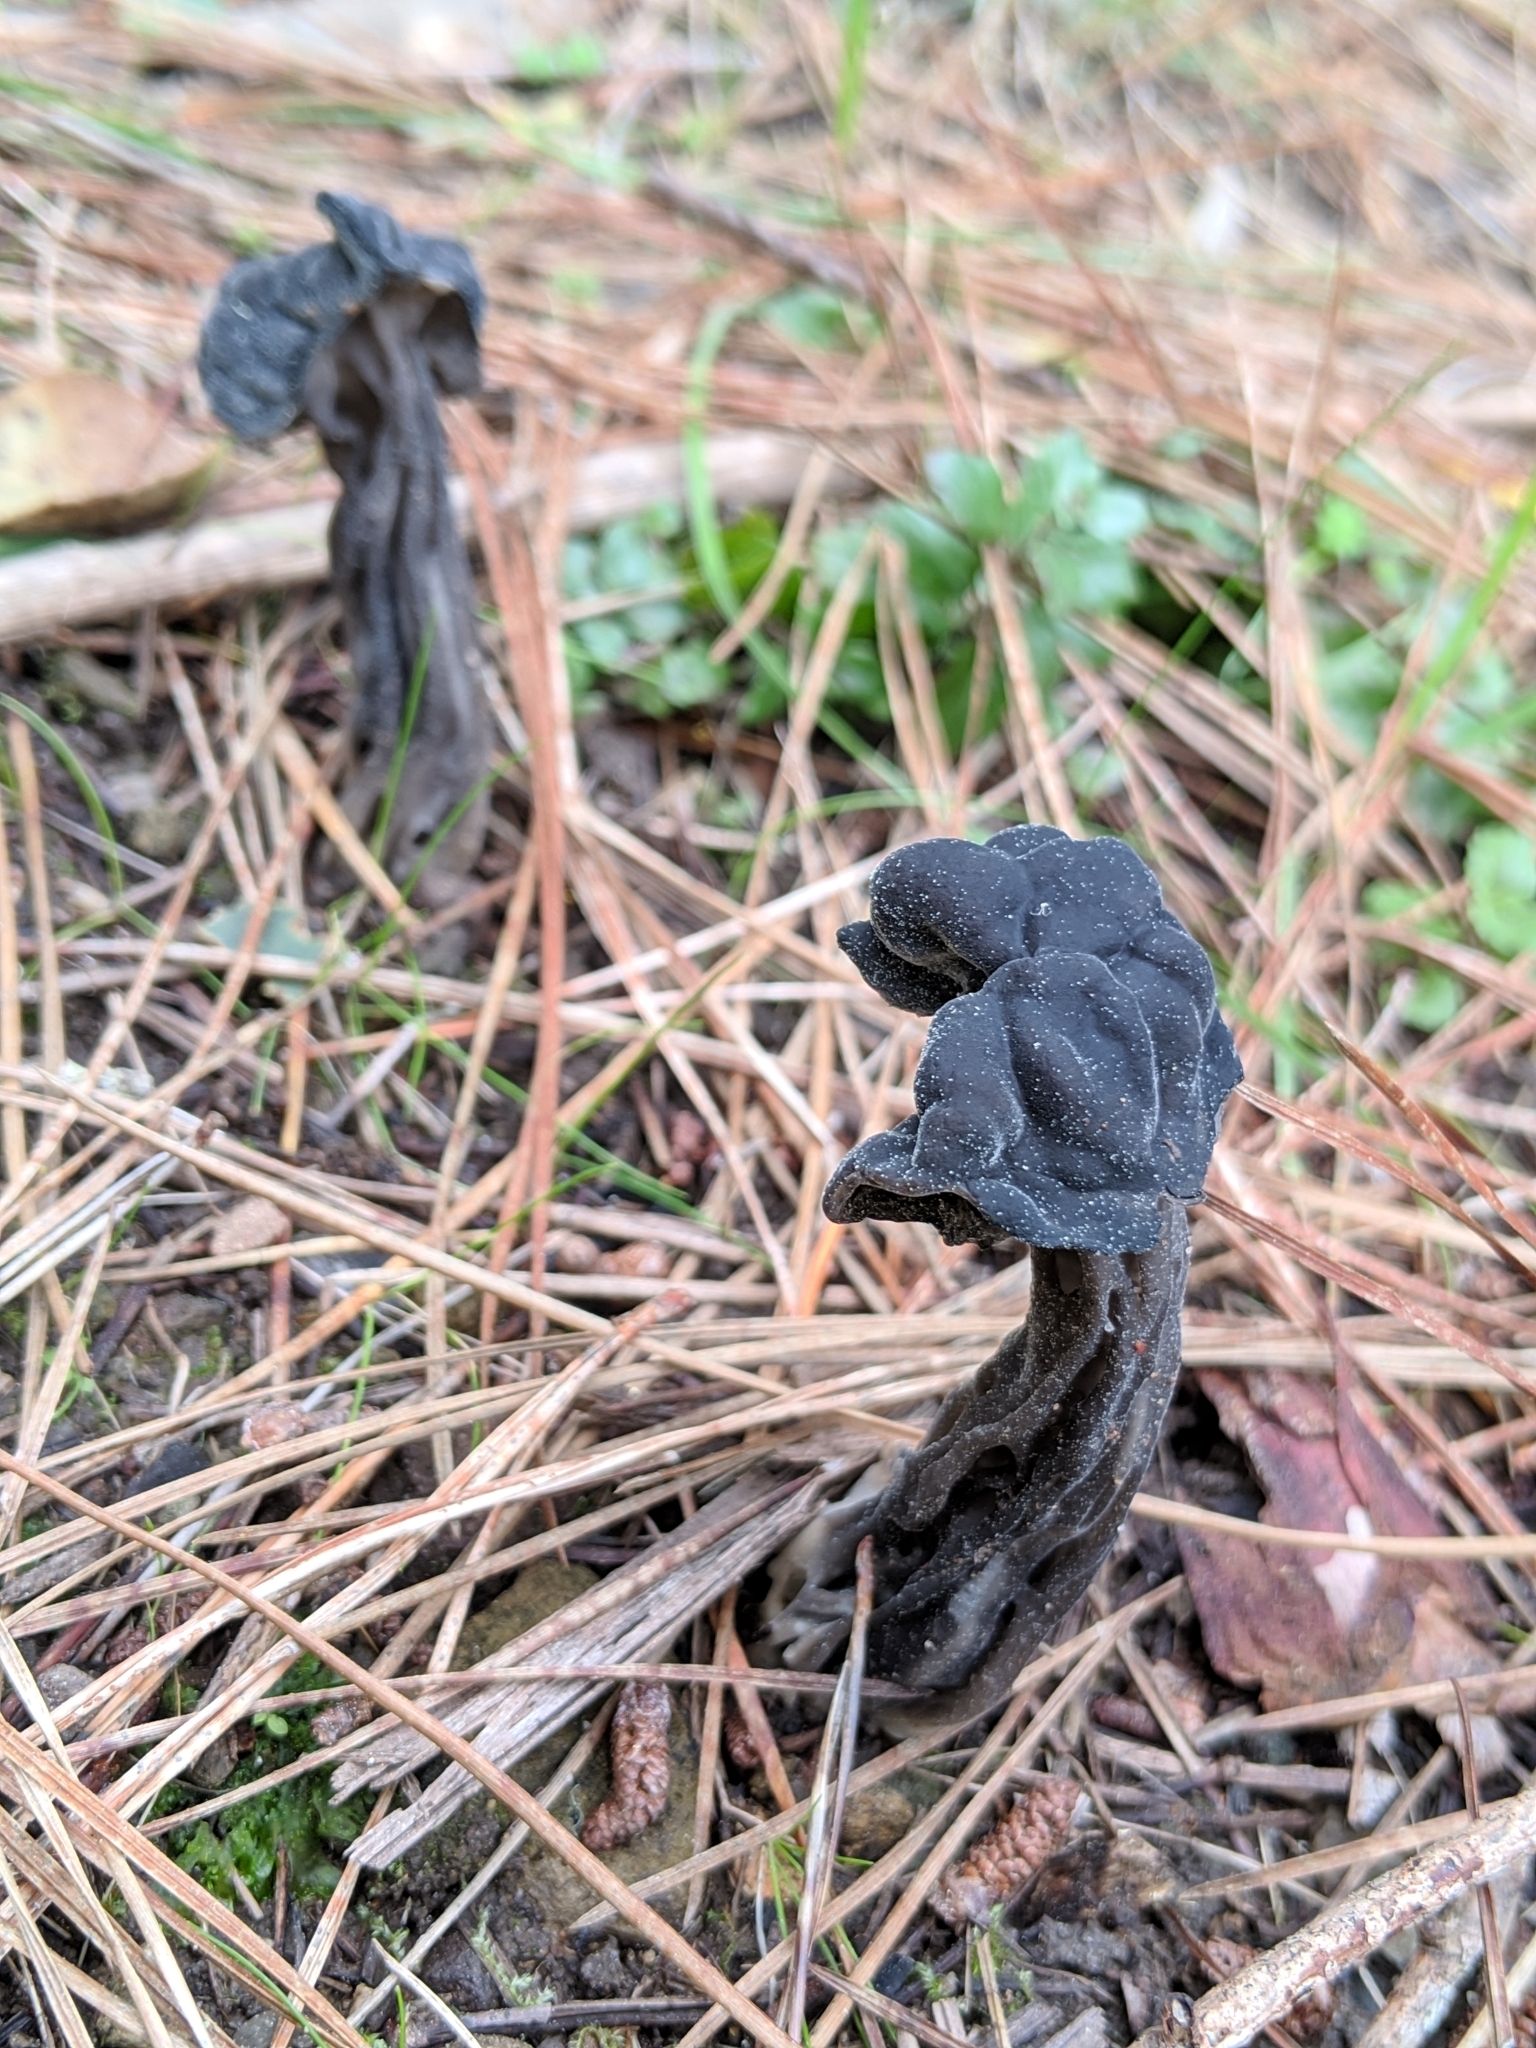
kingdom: Fungi
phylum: Ascomycota
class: Pezizomycetes
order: Pezizales
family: Helvellaceae
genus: Helvella
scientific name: Helvella vespertina
